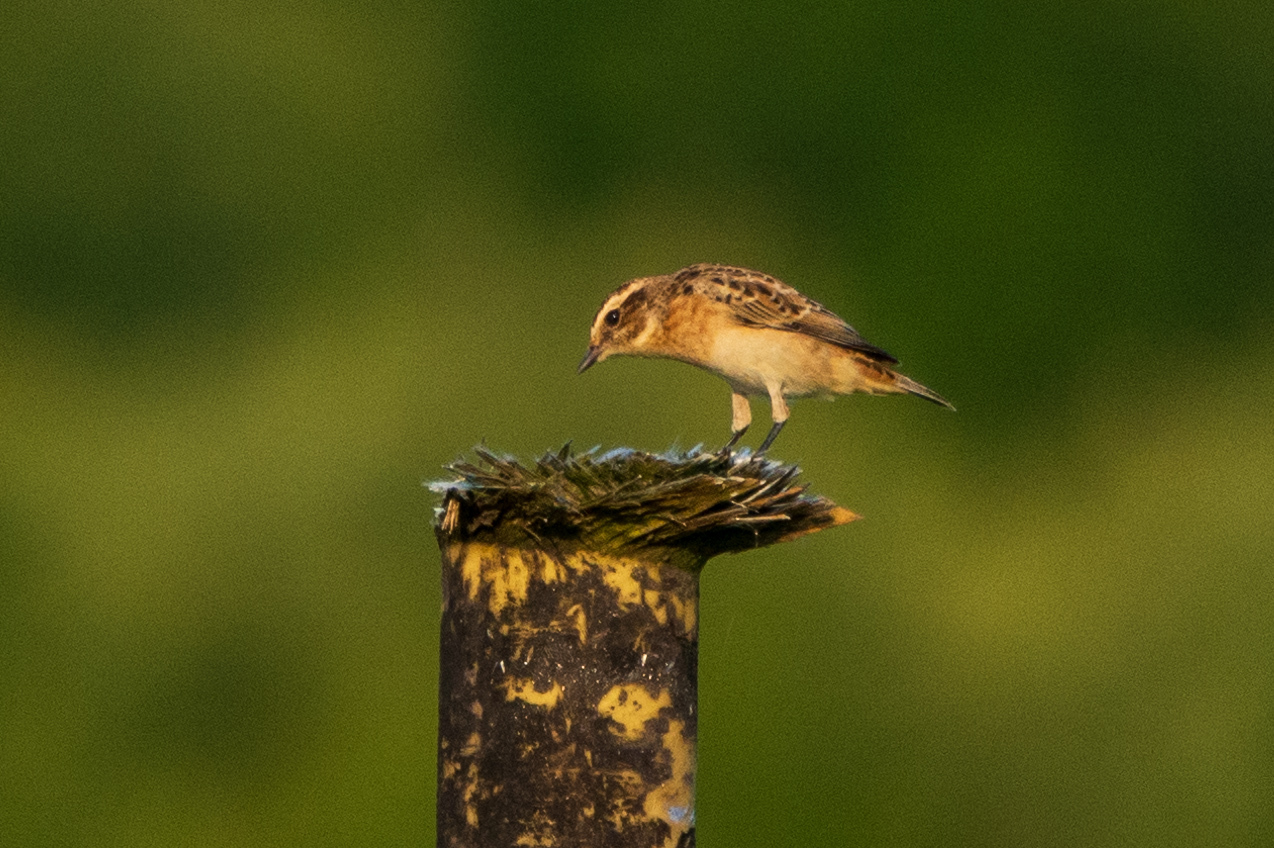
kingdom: Animalia
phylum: Chordata
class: Aves
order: Passeriformes
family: Muscicapidae
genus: Saxicola
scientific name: Saxicola rubetra
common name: Whinchat
